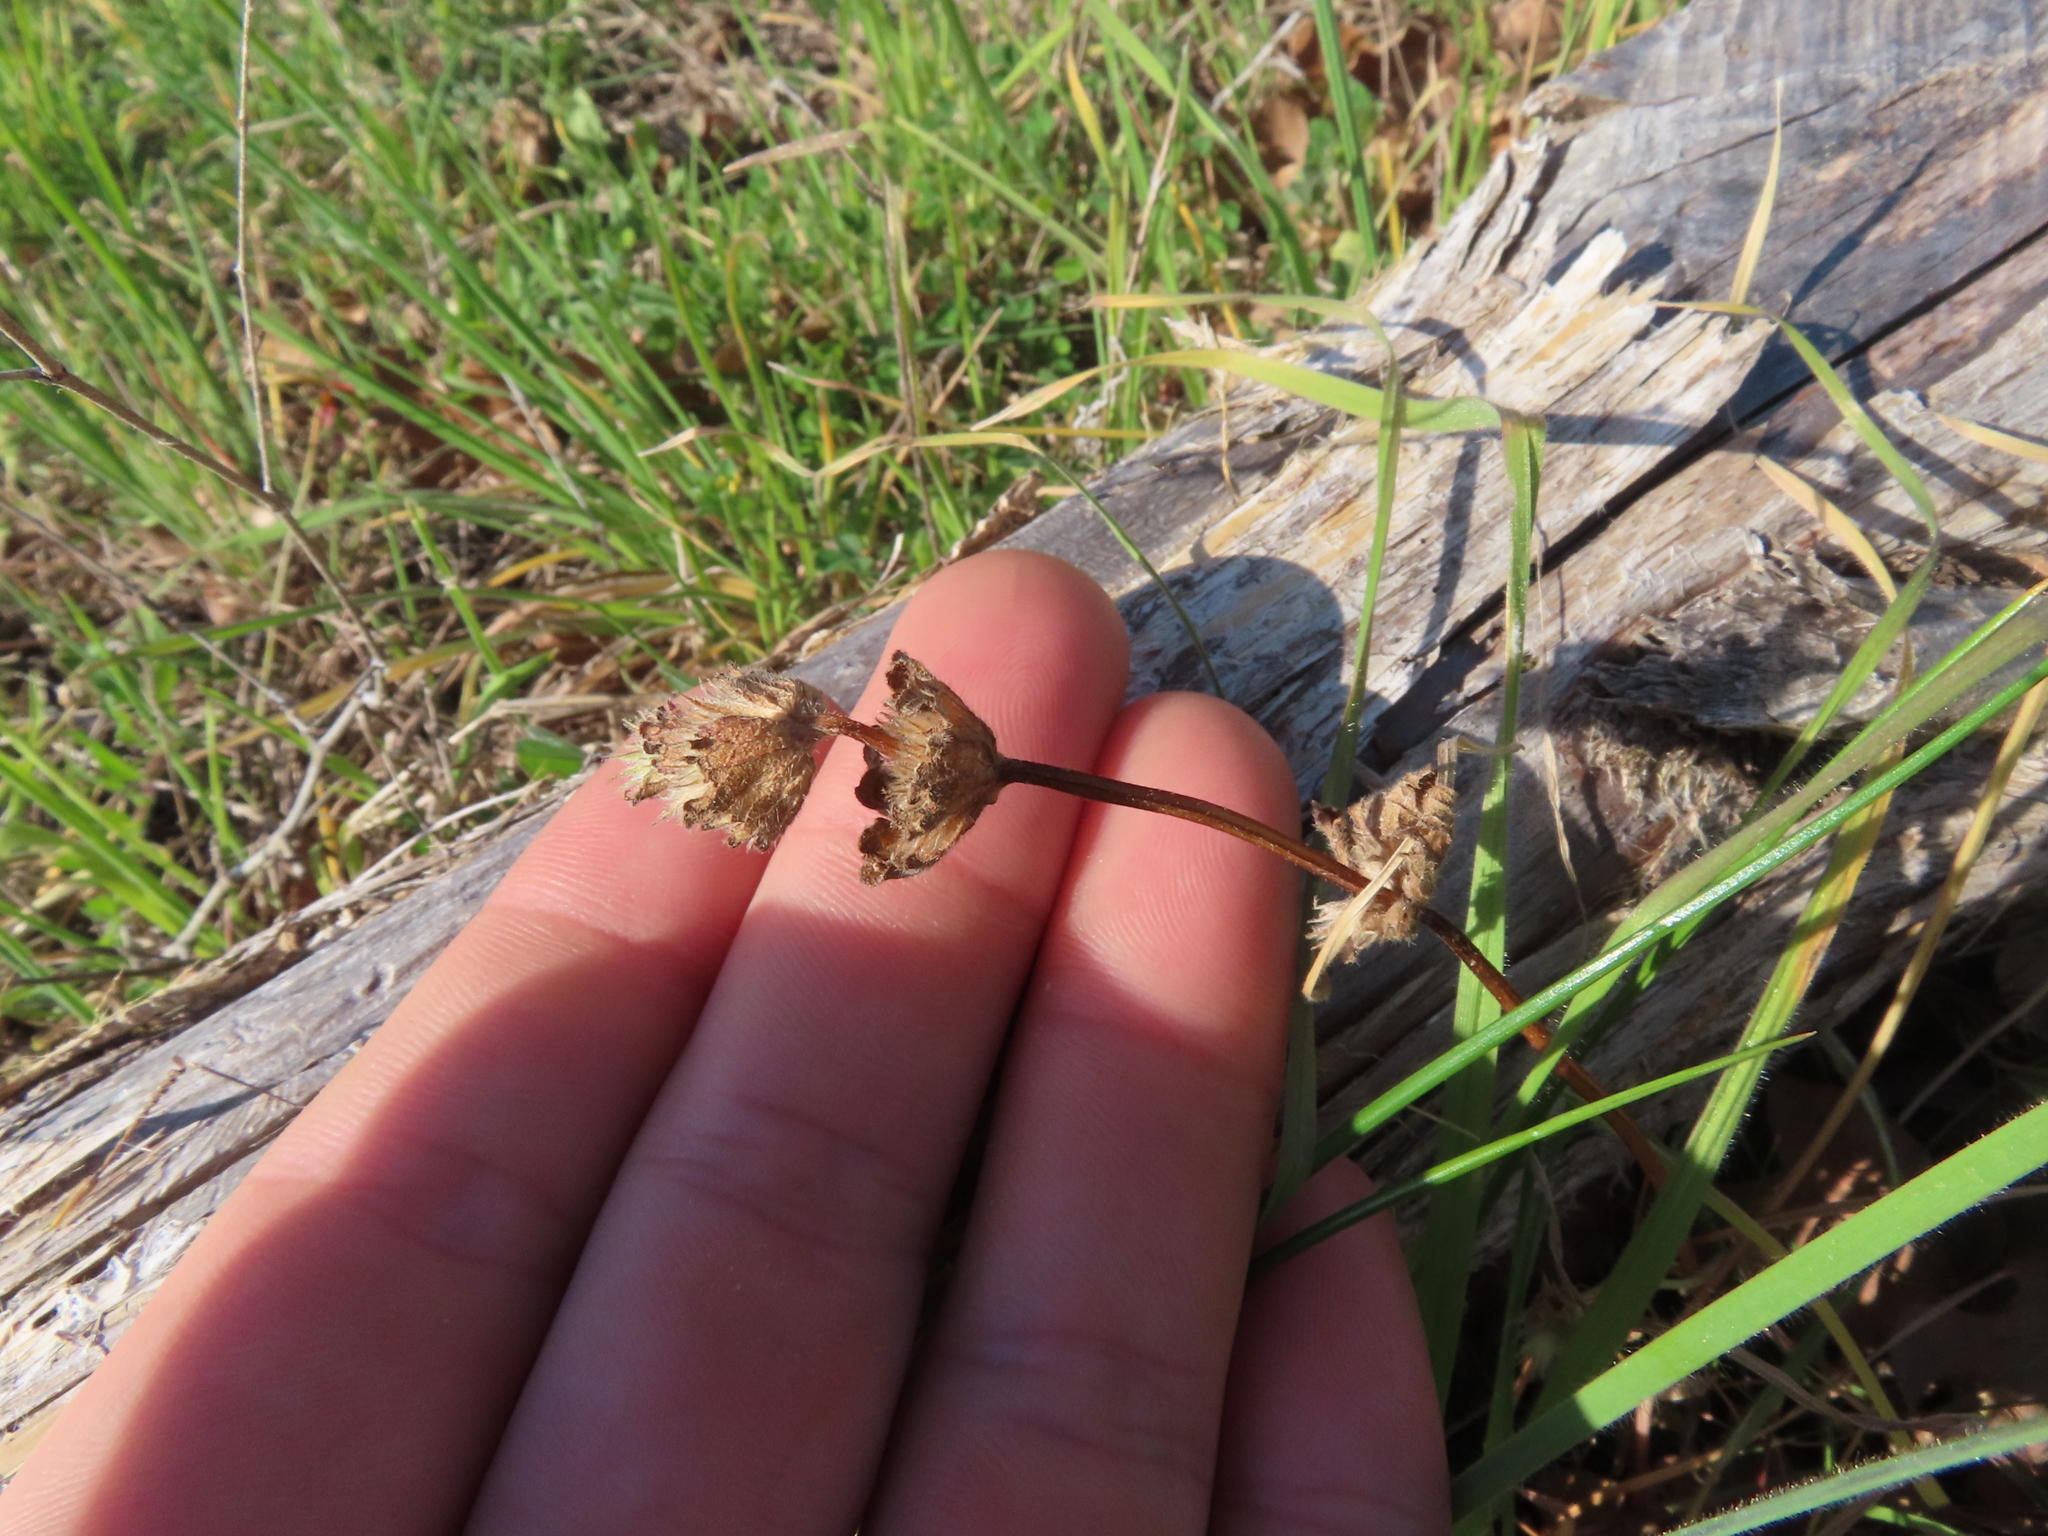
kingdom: Plantae
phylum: Tracheophyta
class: Magnoliopsida
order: Lamiales
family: Lamiaceae
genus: Lamium
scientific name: Lamium amplexicaule
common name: Henbit dead-nettle
